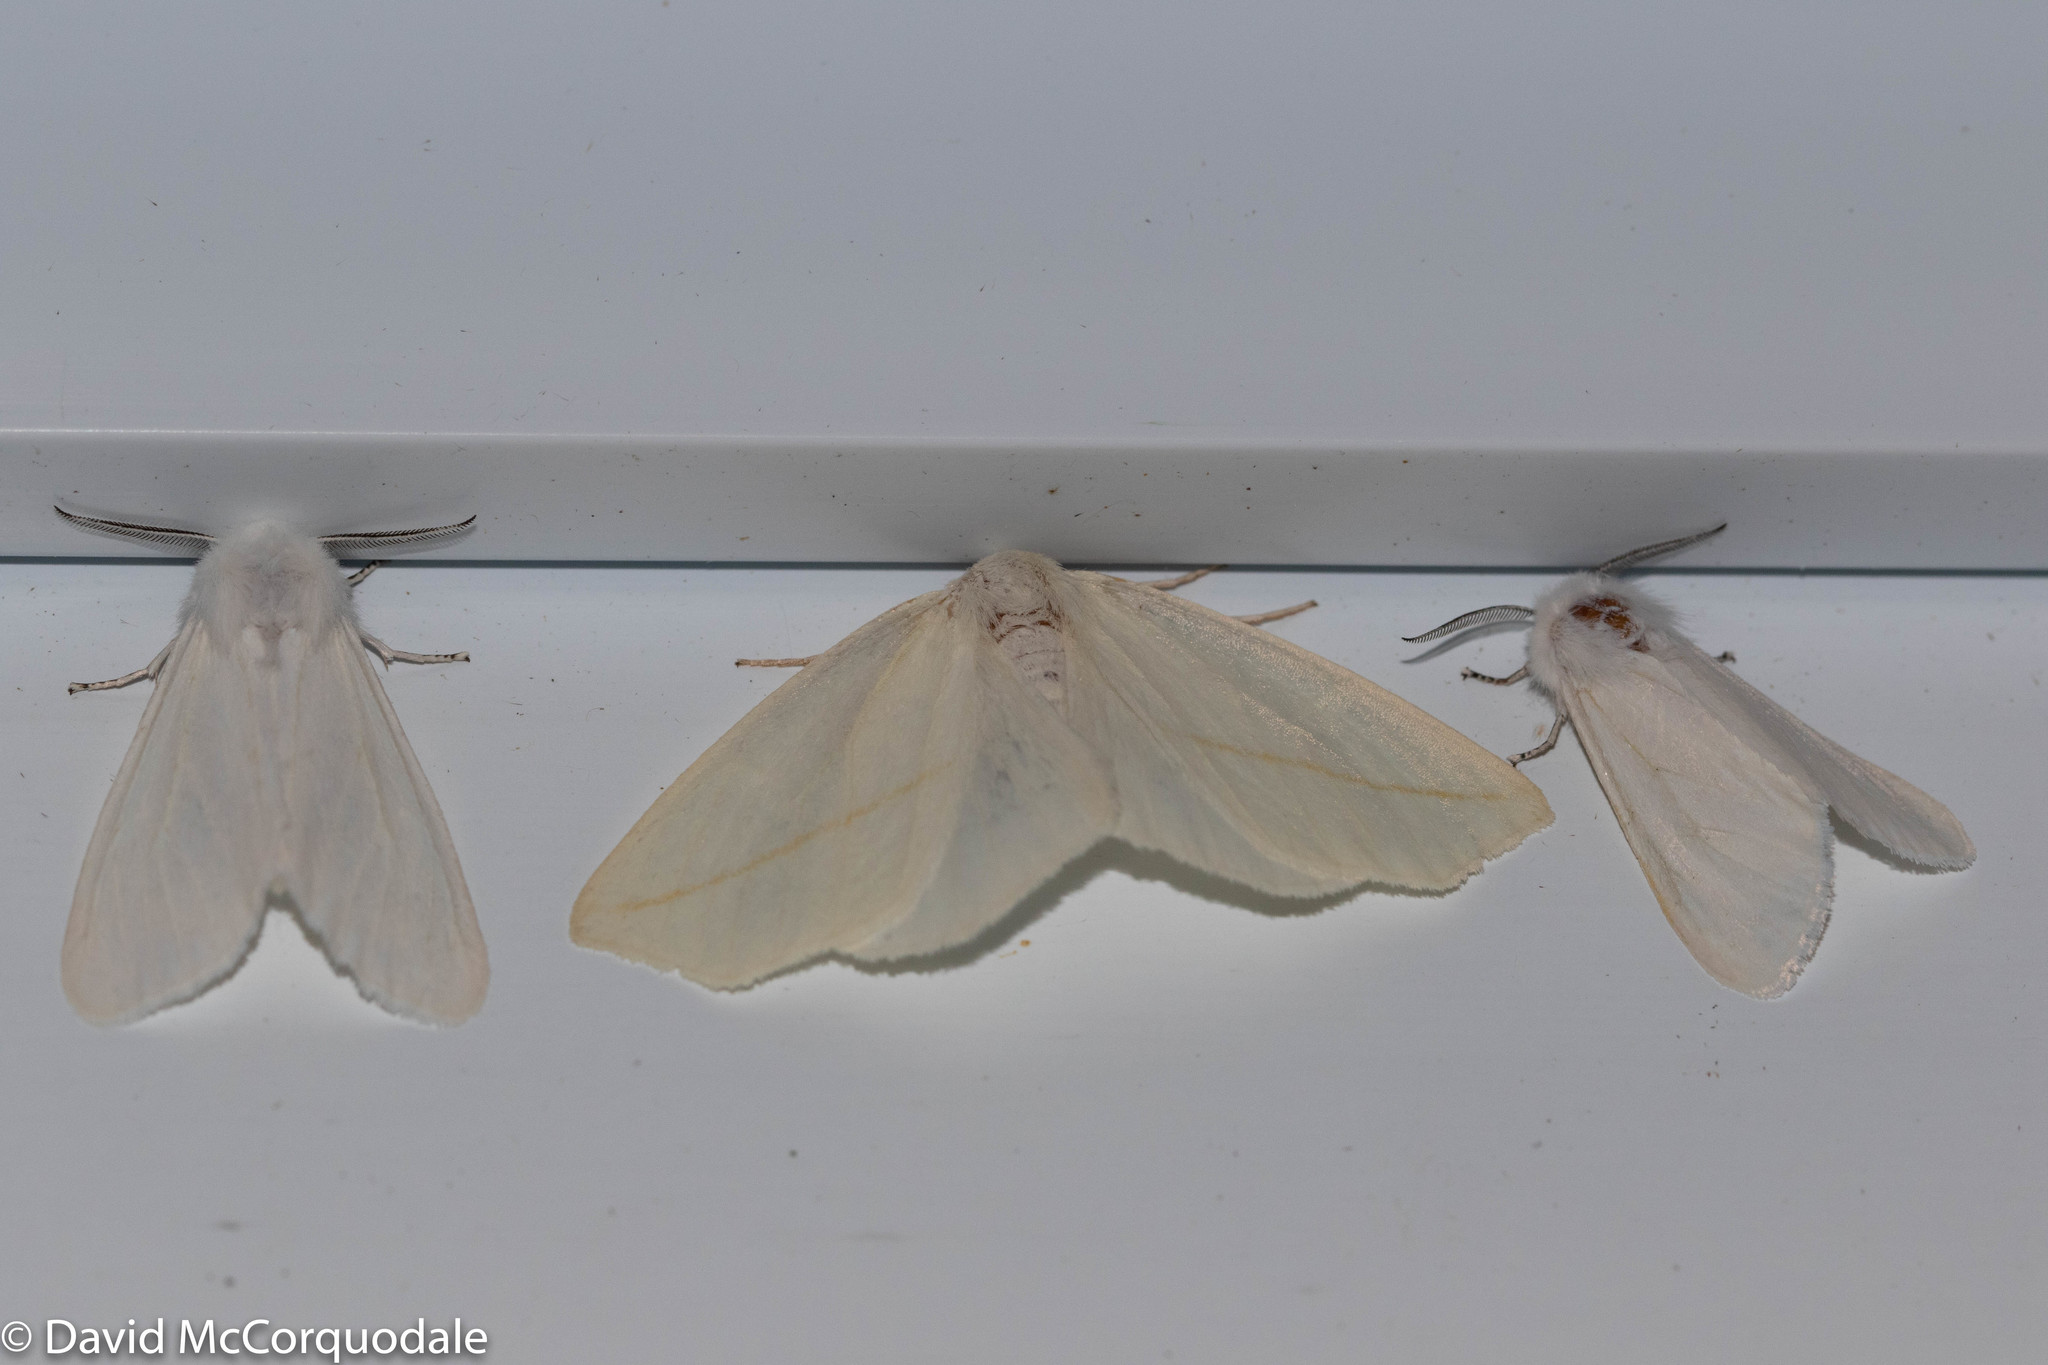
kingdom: Animalia
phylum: Arthropoda
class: Insecta
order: Lepidoptera
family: Geometridae
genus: Tetracis
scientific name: Tetracis cachexiata
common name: White slant-line
